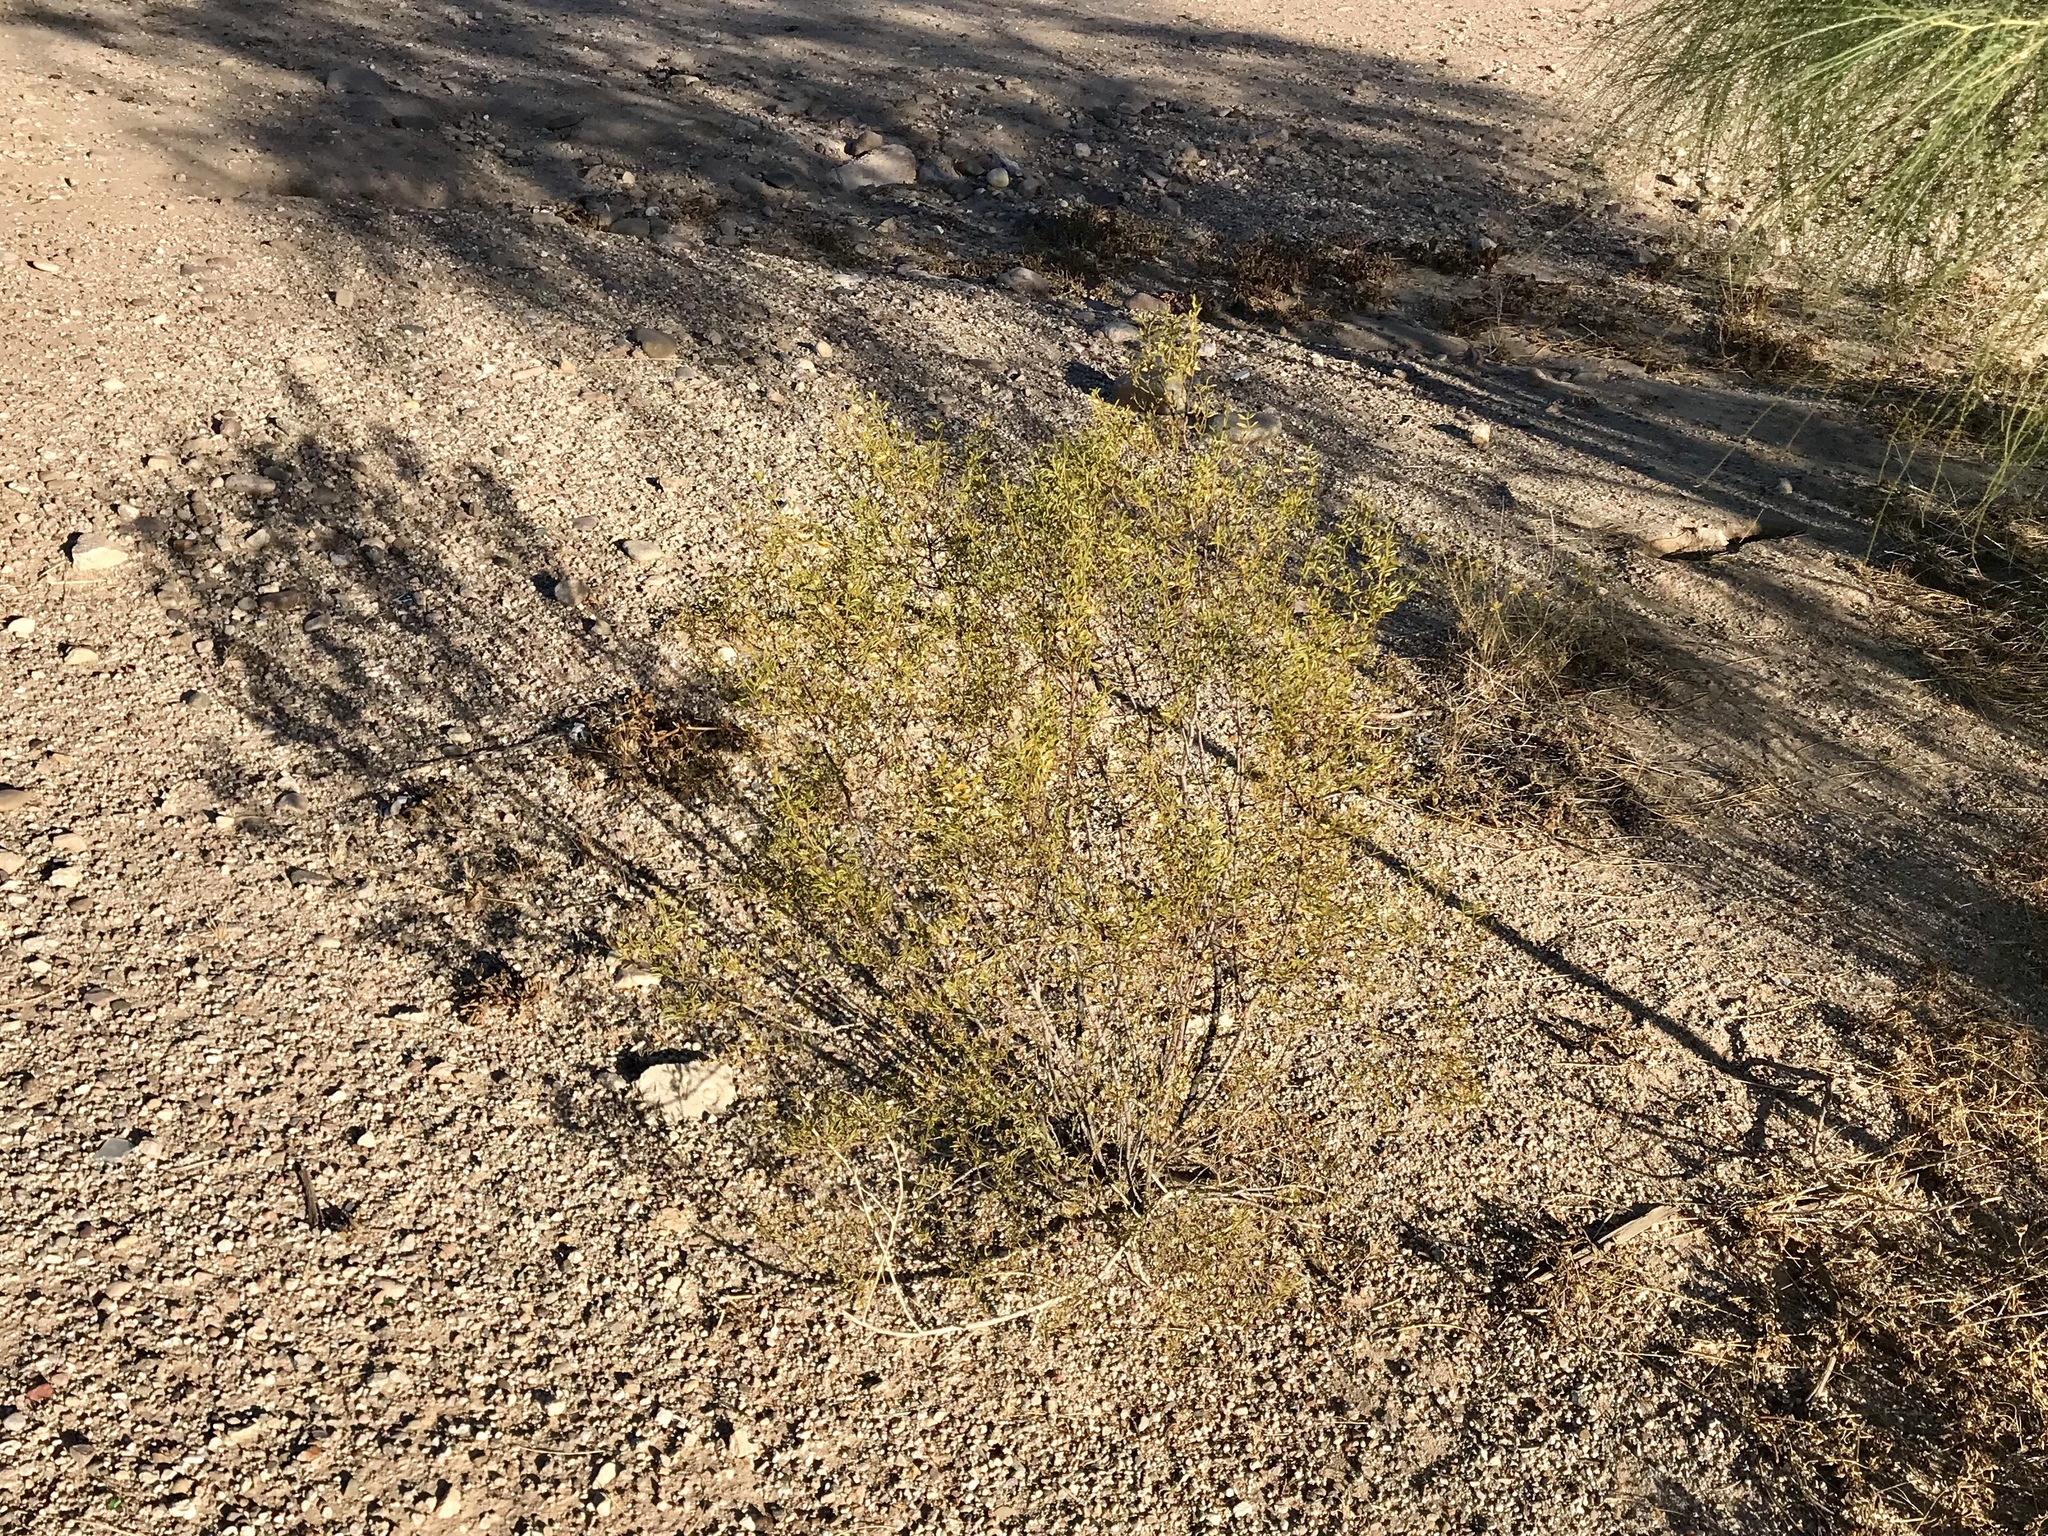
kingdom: Plantae
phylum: Tracheophyta
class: Magnoliopsida
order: Zygophyllales
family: Zygophyllaceae
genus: Larrea
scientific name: Larrea tridentata
